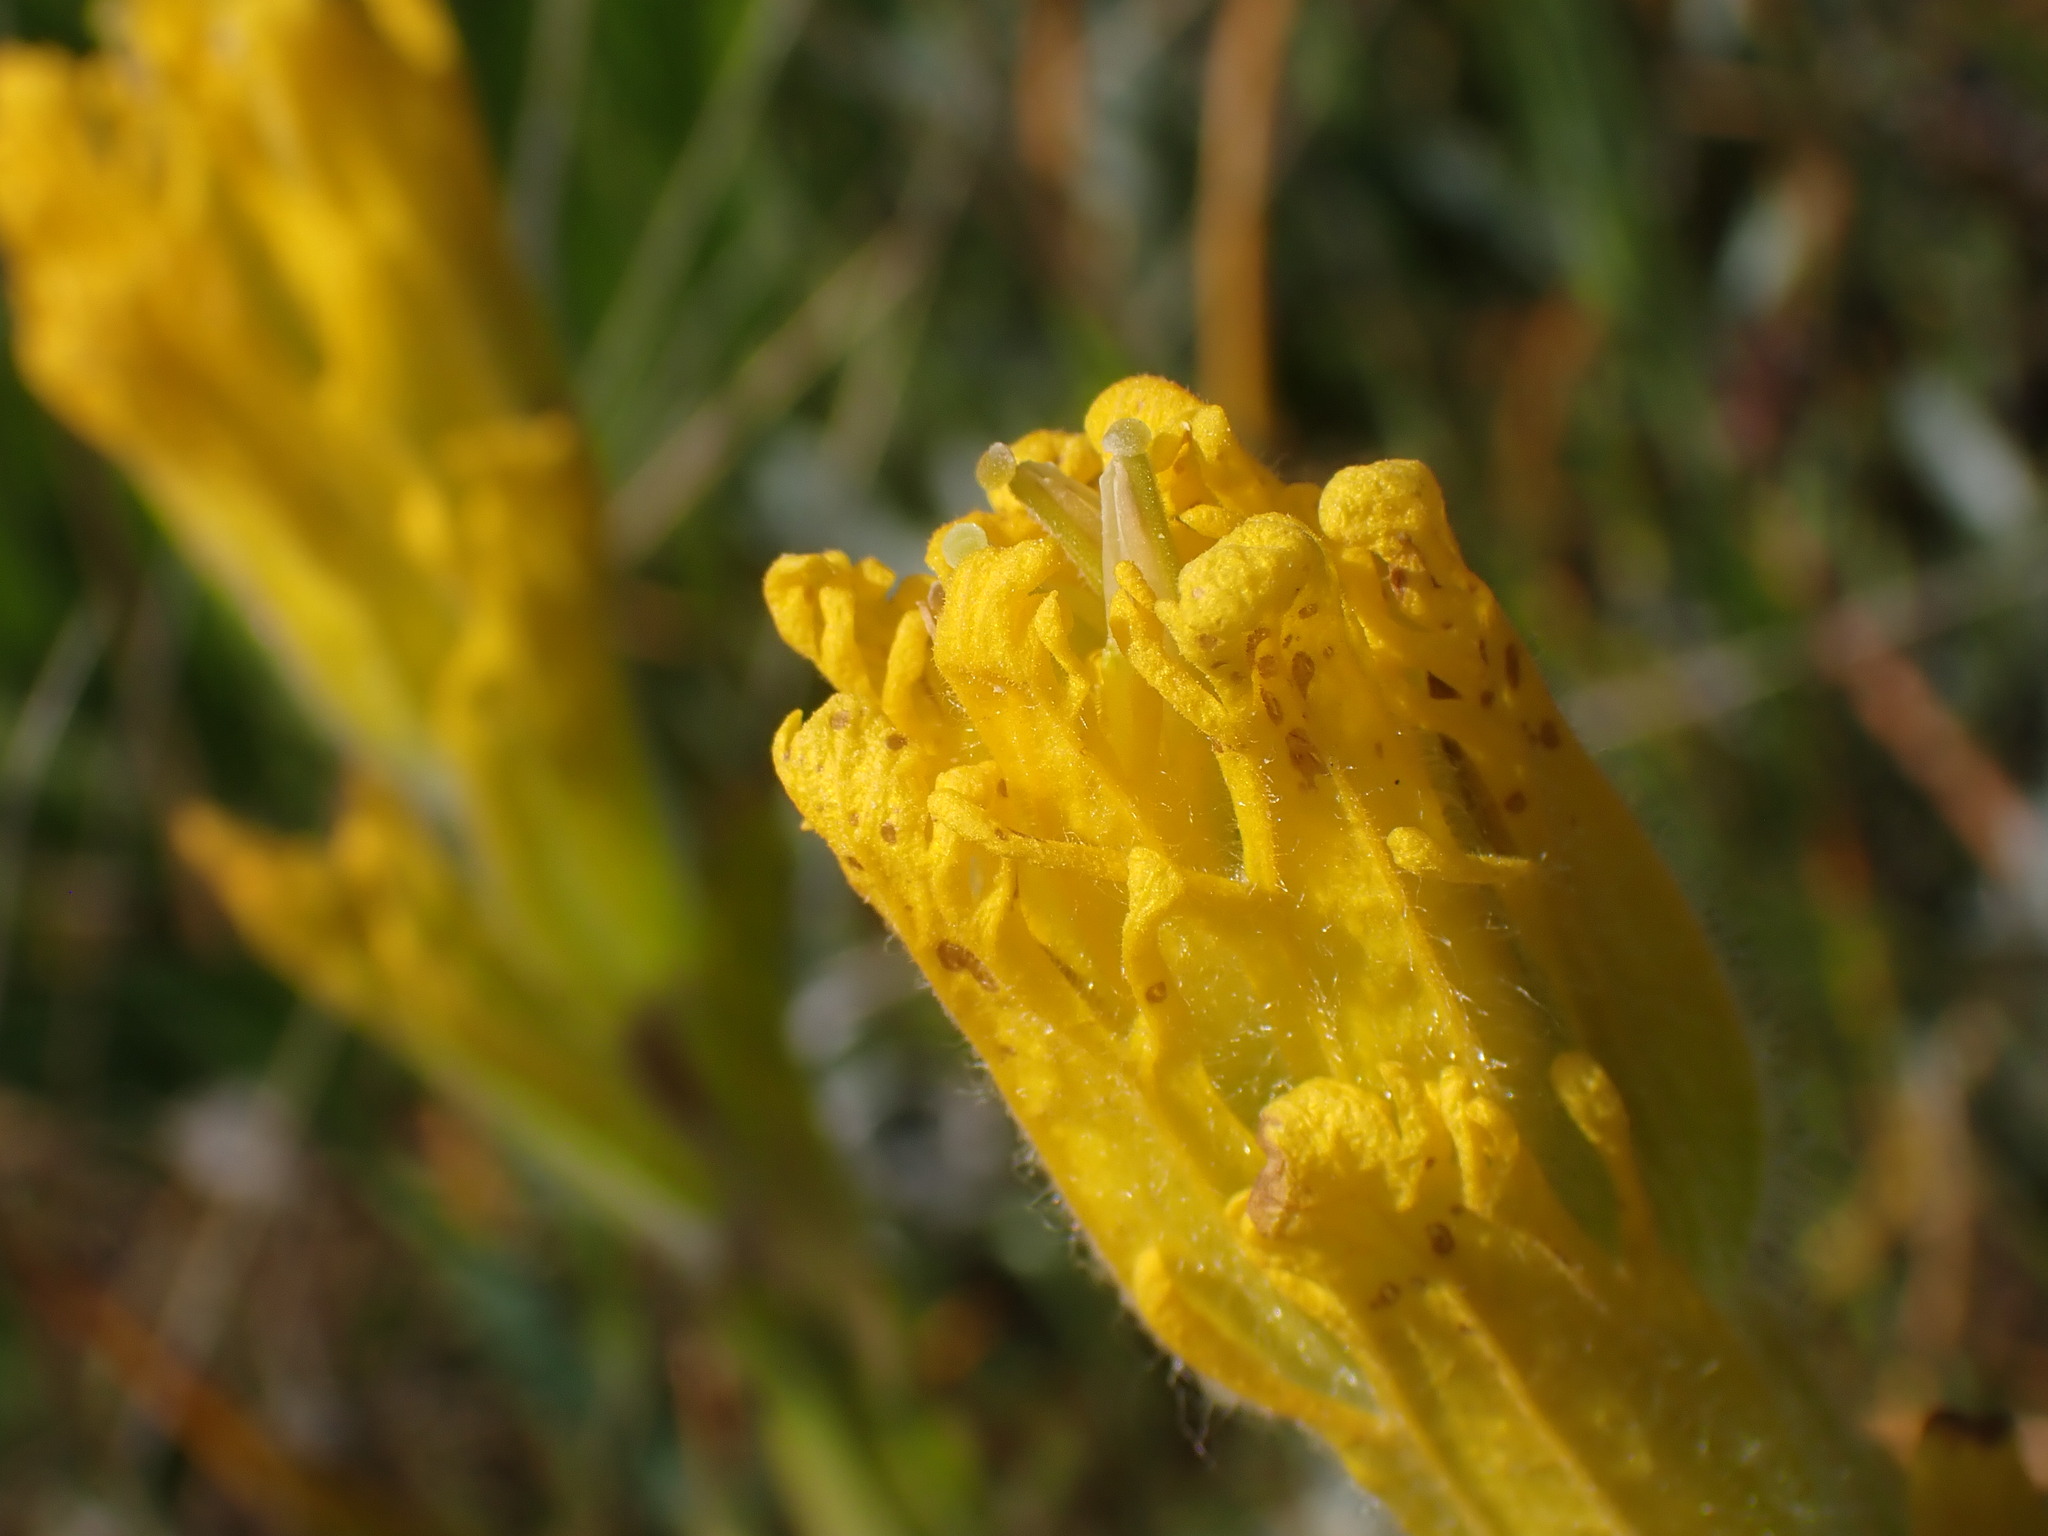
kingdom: Plantae
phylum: Tracheophyta
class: Magnoliopsida
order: Lamiales
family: Orobanchaceae
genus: Castilleja
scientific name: Castilleja levisecta
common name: Golden paintbrush
